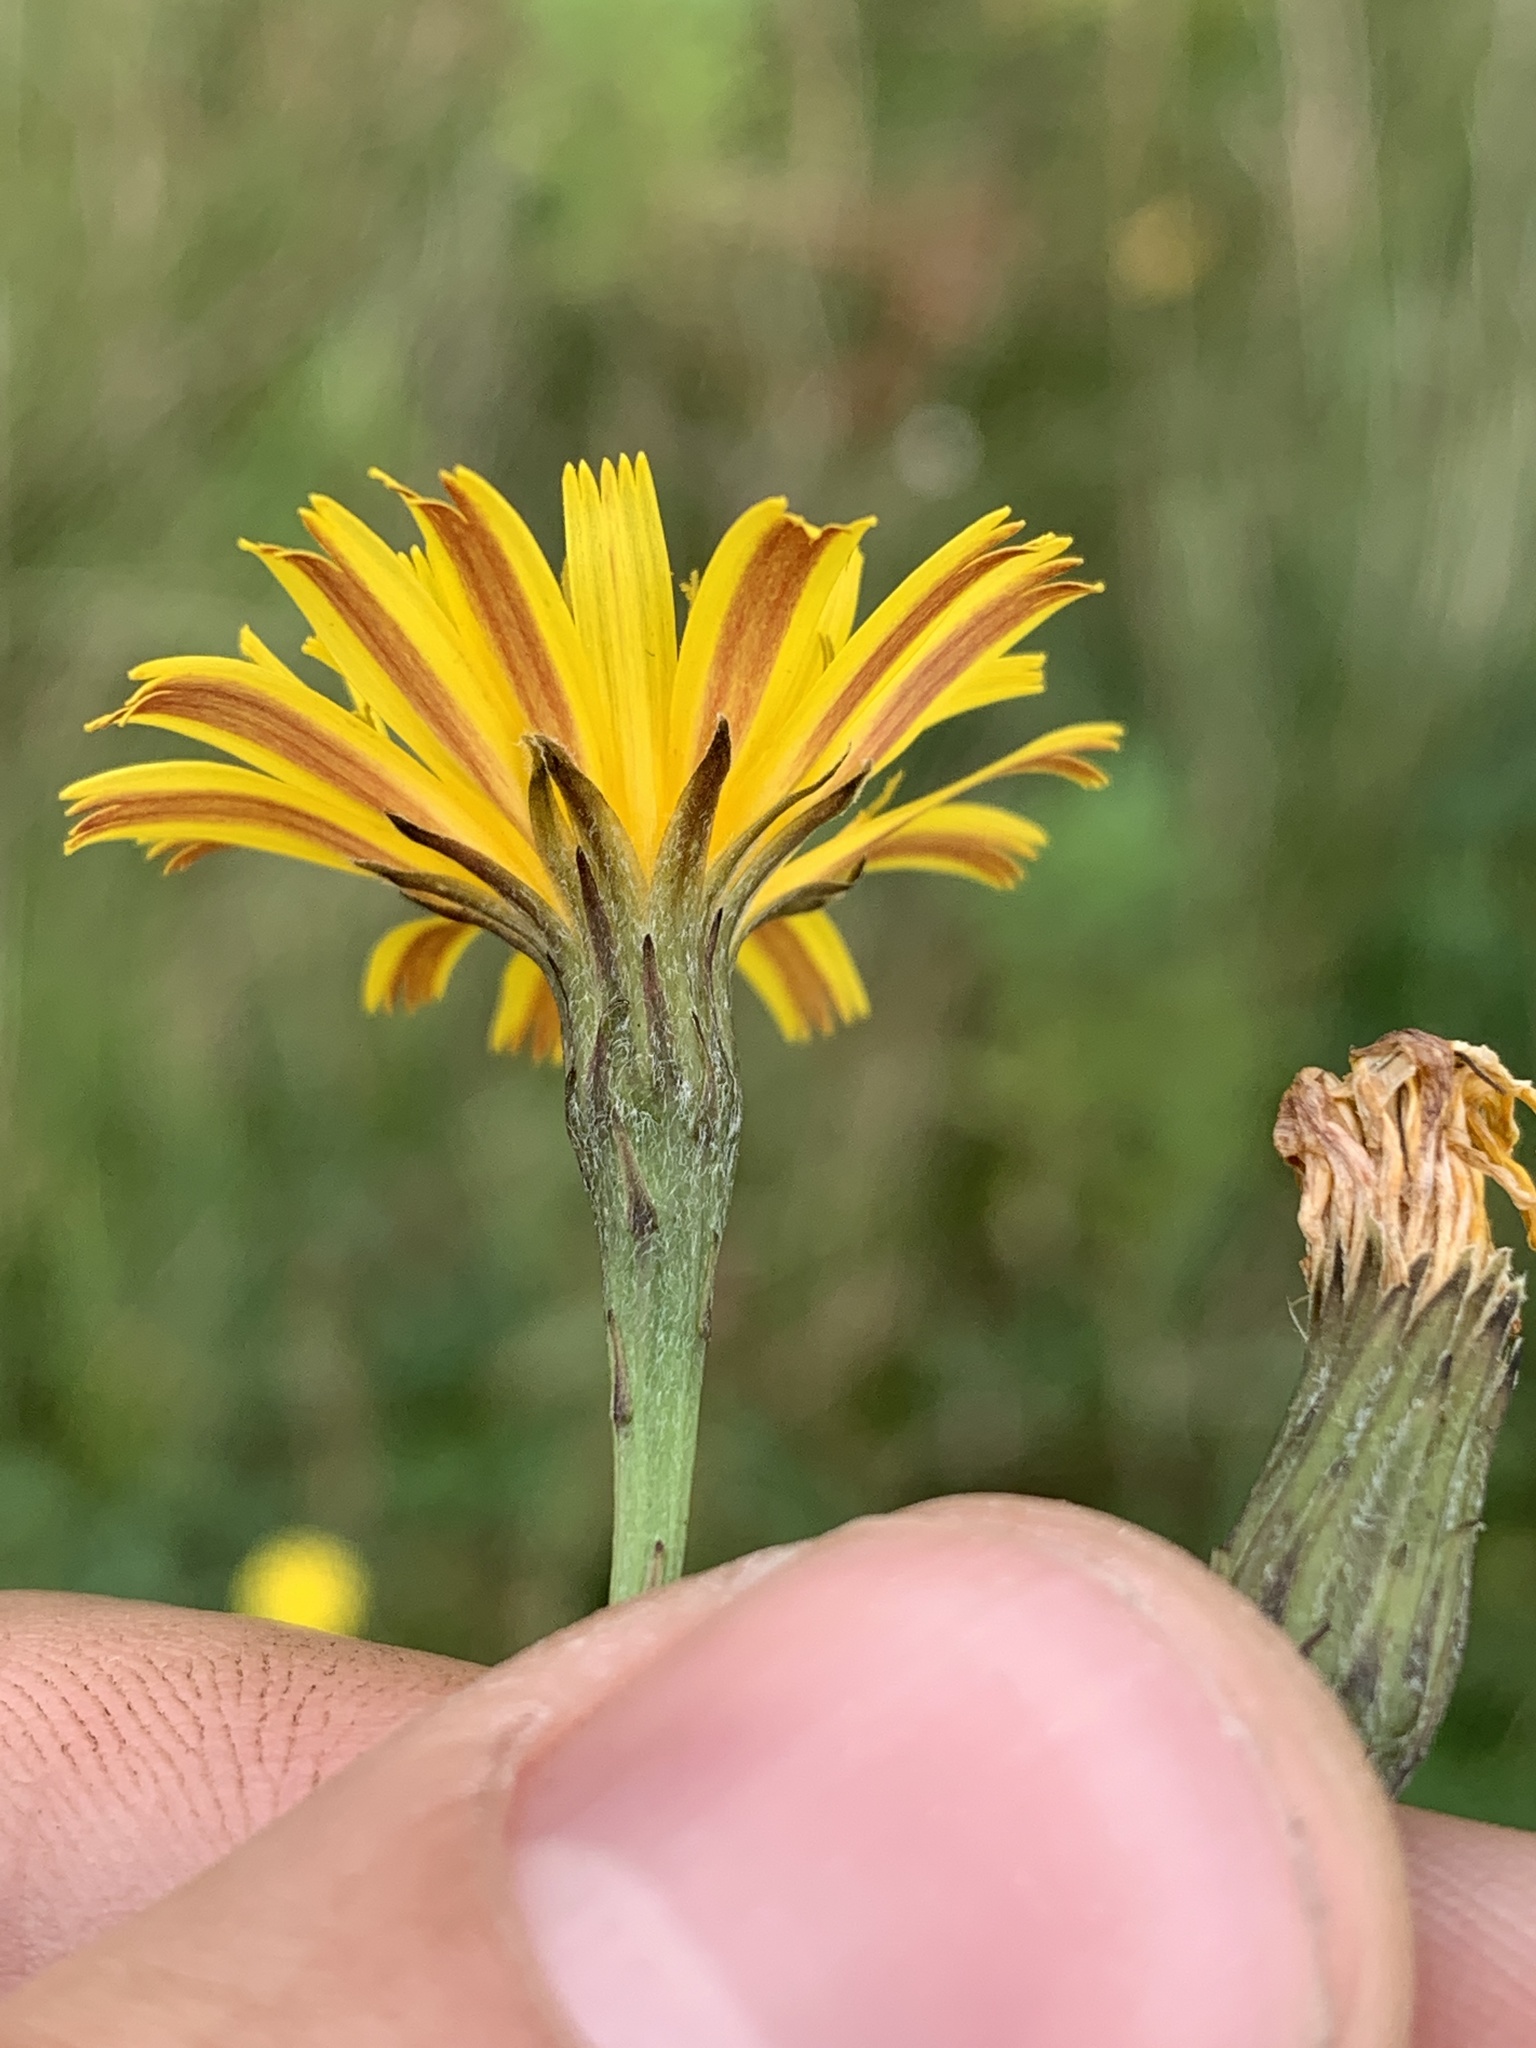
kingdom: Plantae
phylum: Tracheophyta
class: Magnoliopsida
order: Asterales
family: Asteraceae
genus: Scorzoneroides
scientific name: Scorzoneroides autumnalis
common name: Autumn hawkbit
